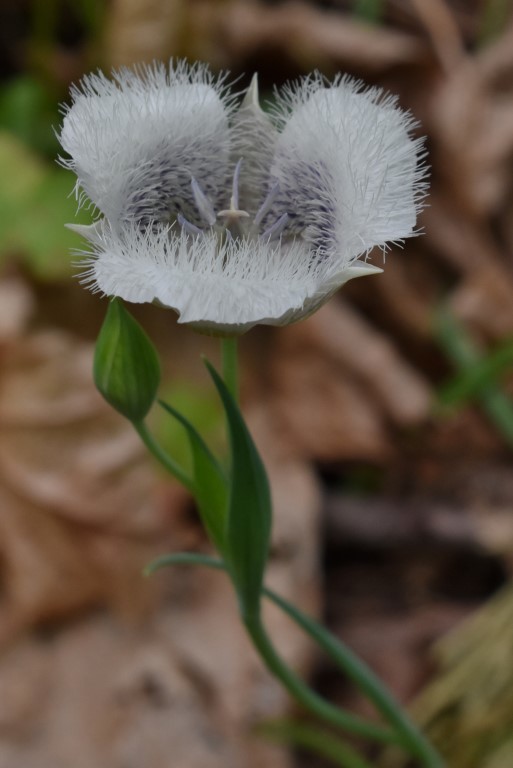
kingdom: Plantae
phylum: Tracheophyta
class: Liliopsida
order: Liliales
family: Liliaceae
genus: Calochortus
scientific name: Calochortus tolmiei
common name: Pussy-ears
